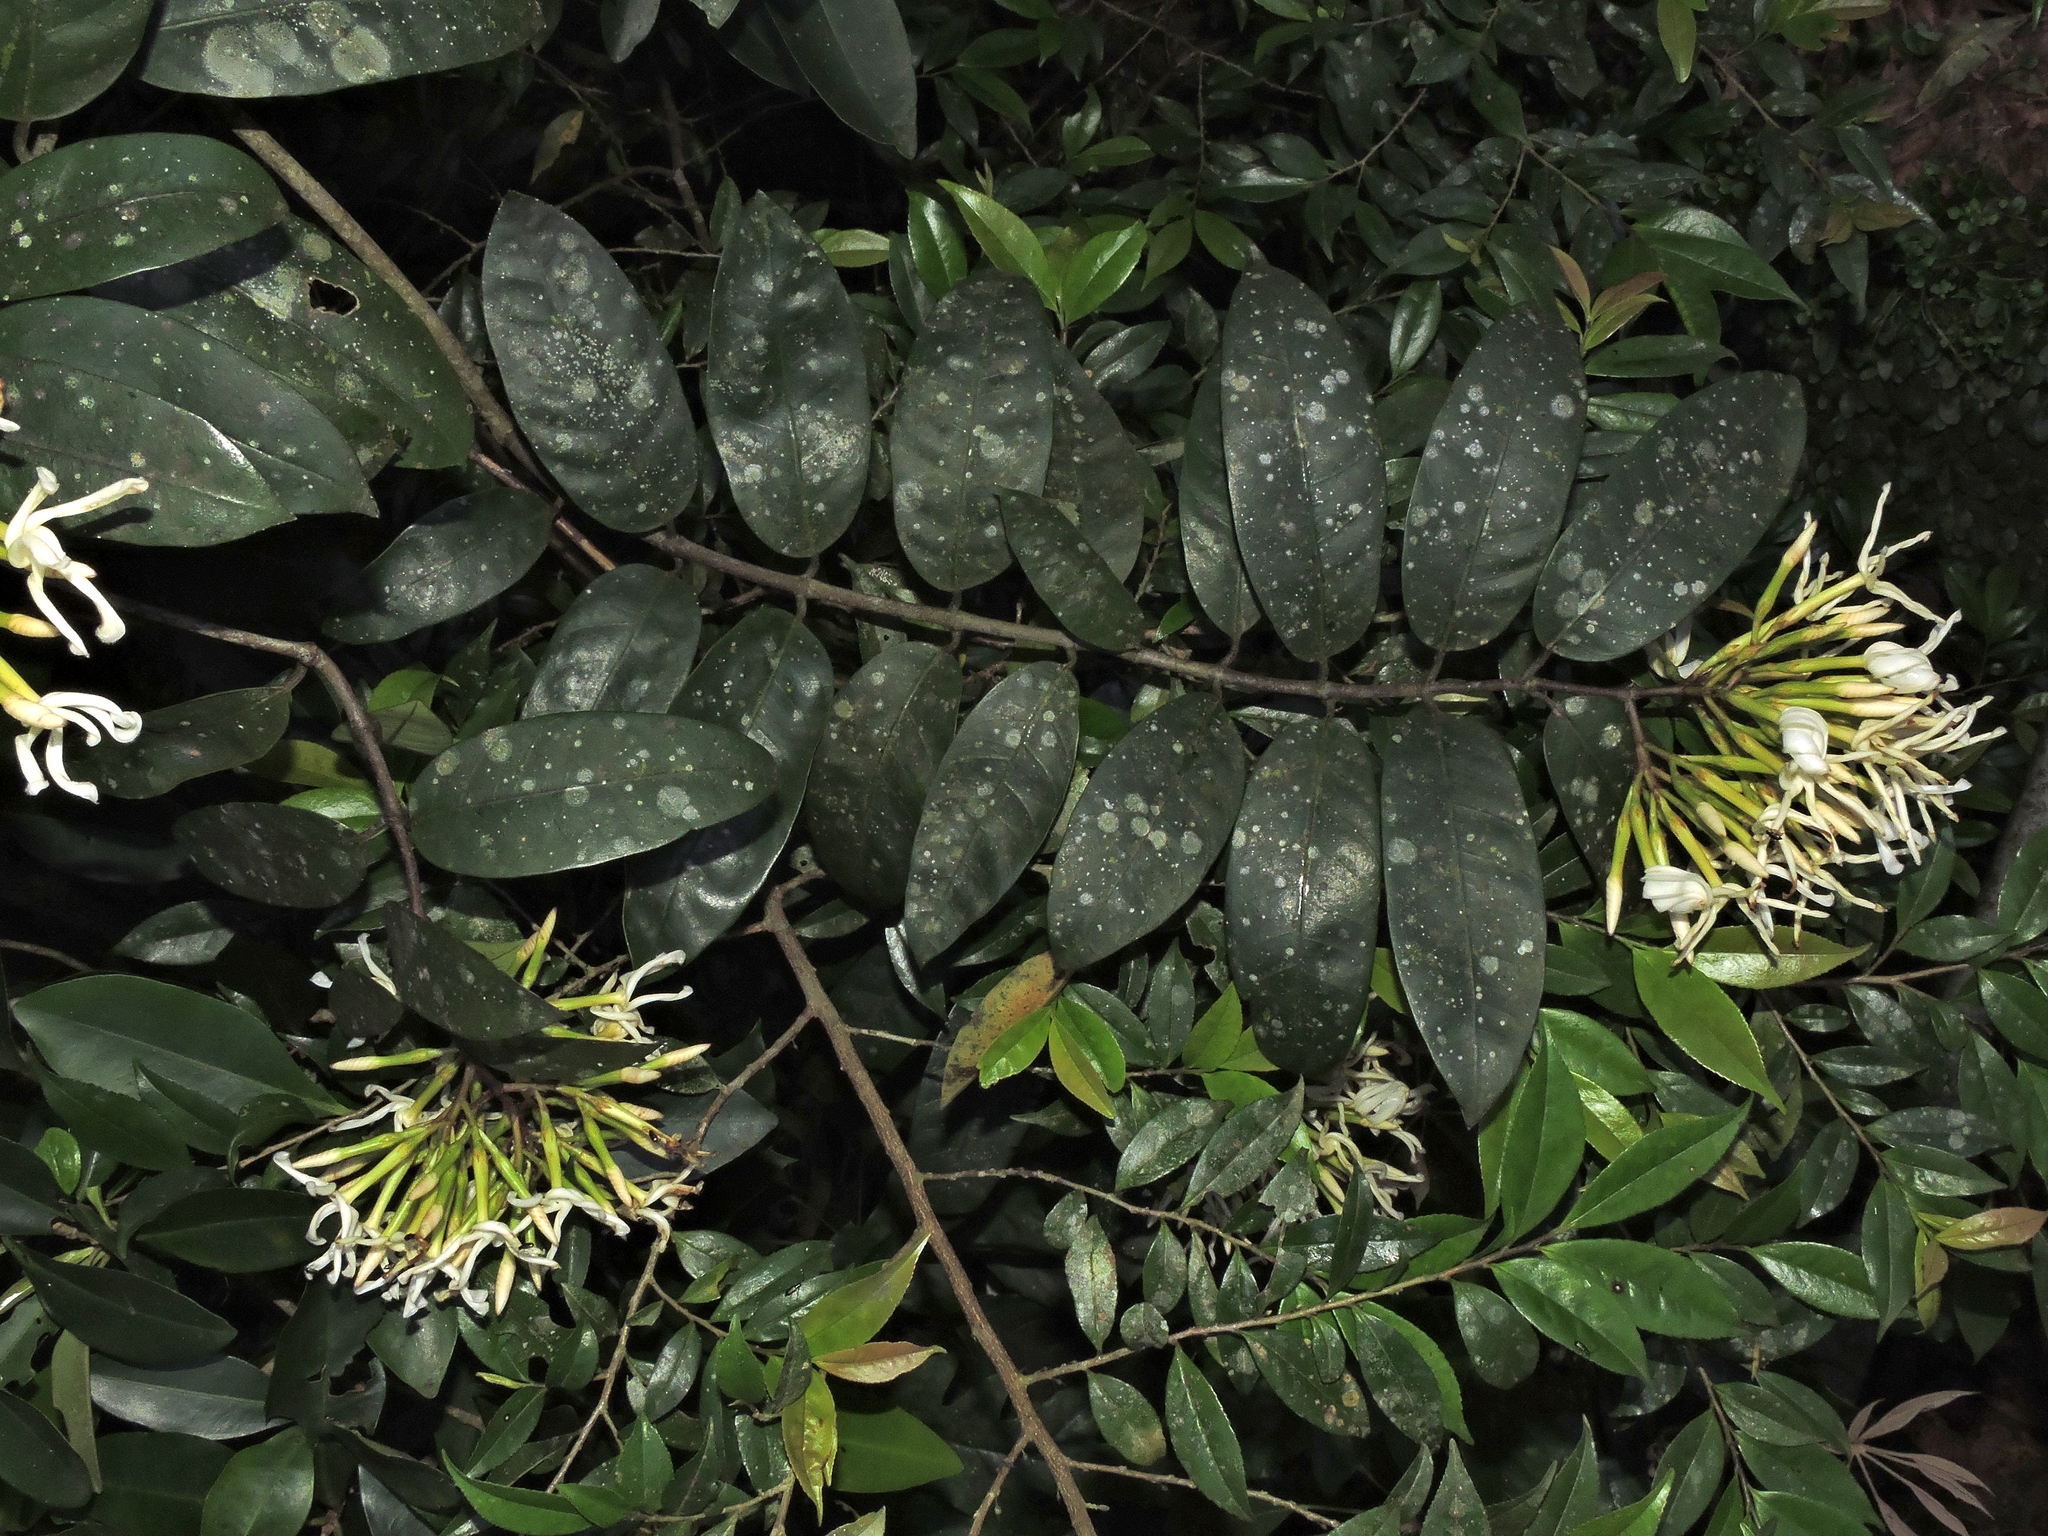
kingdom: Plantae
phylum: Tracheophyta
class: Magnoliopsida
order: Gentianales
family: Apocynaceae
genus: Anodendron
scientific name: Anodendron benthamianum
